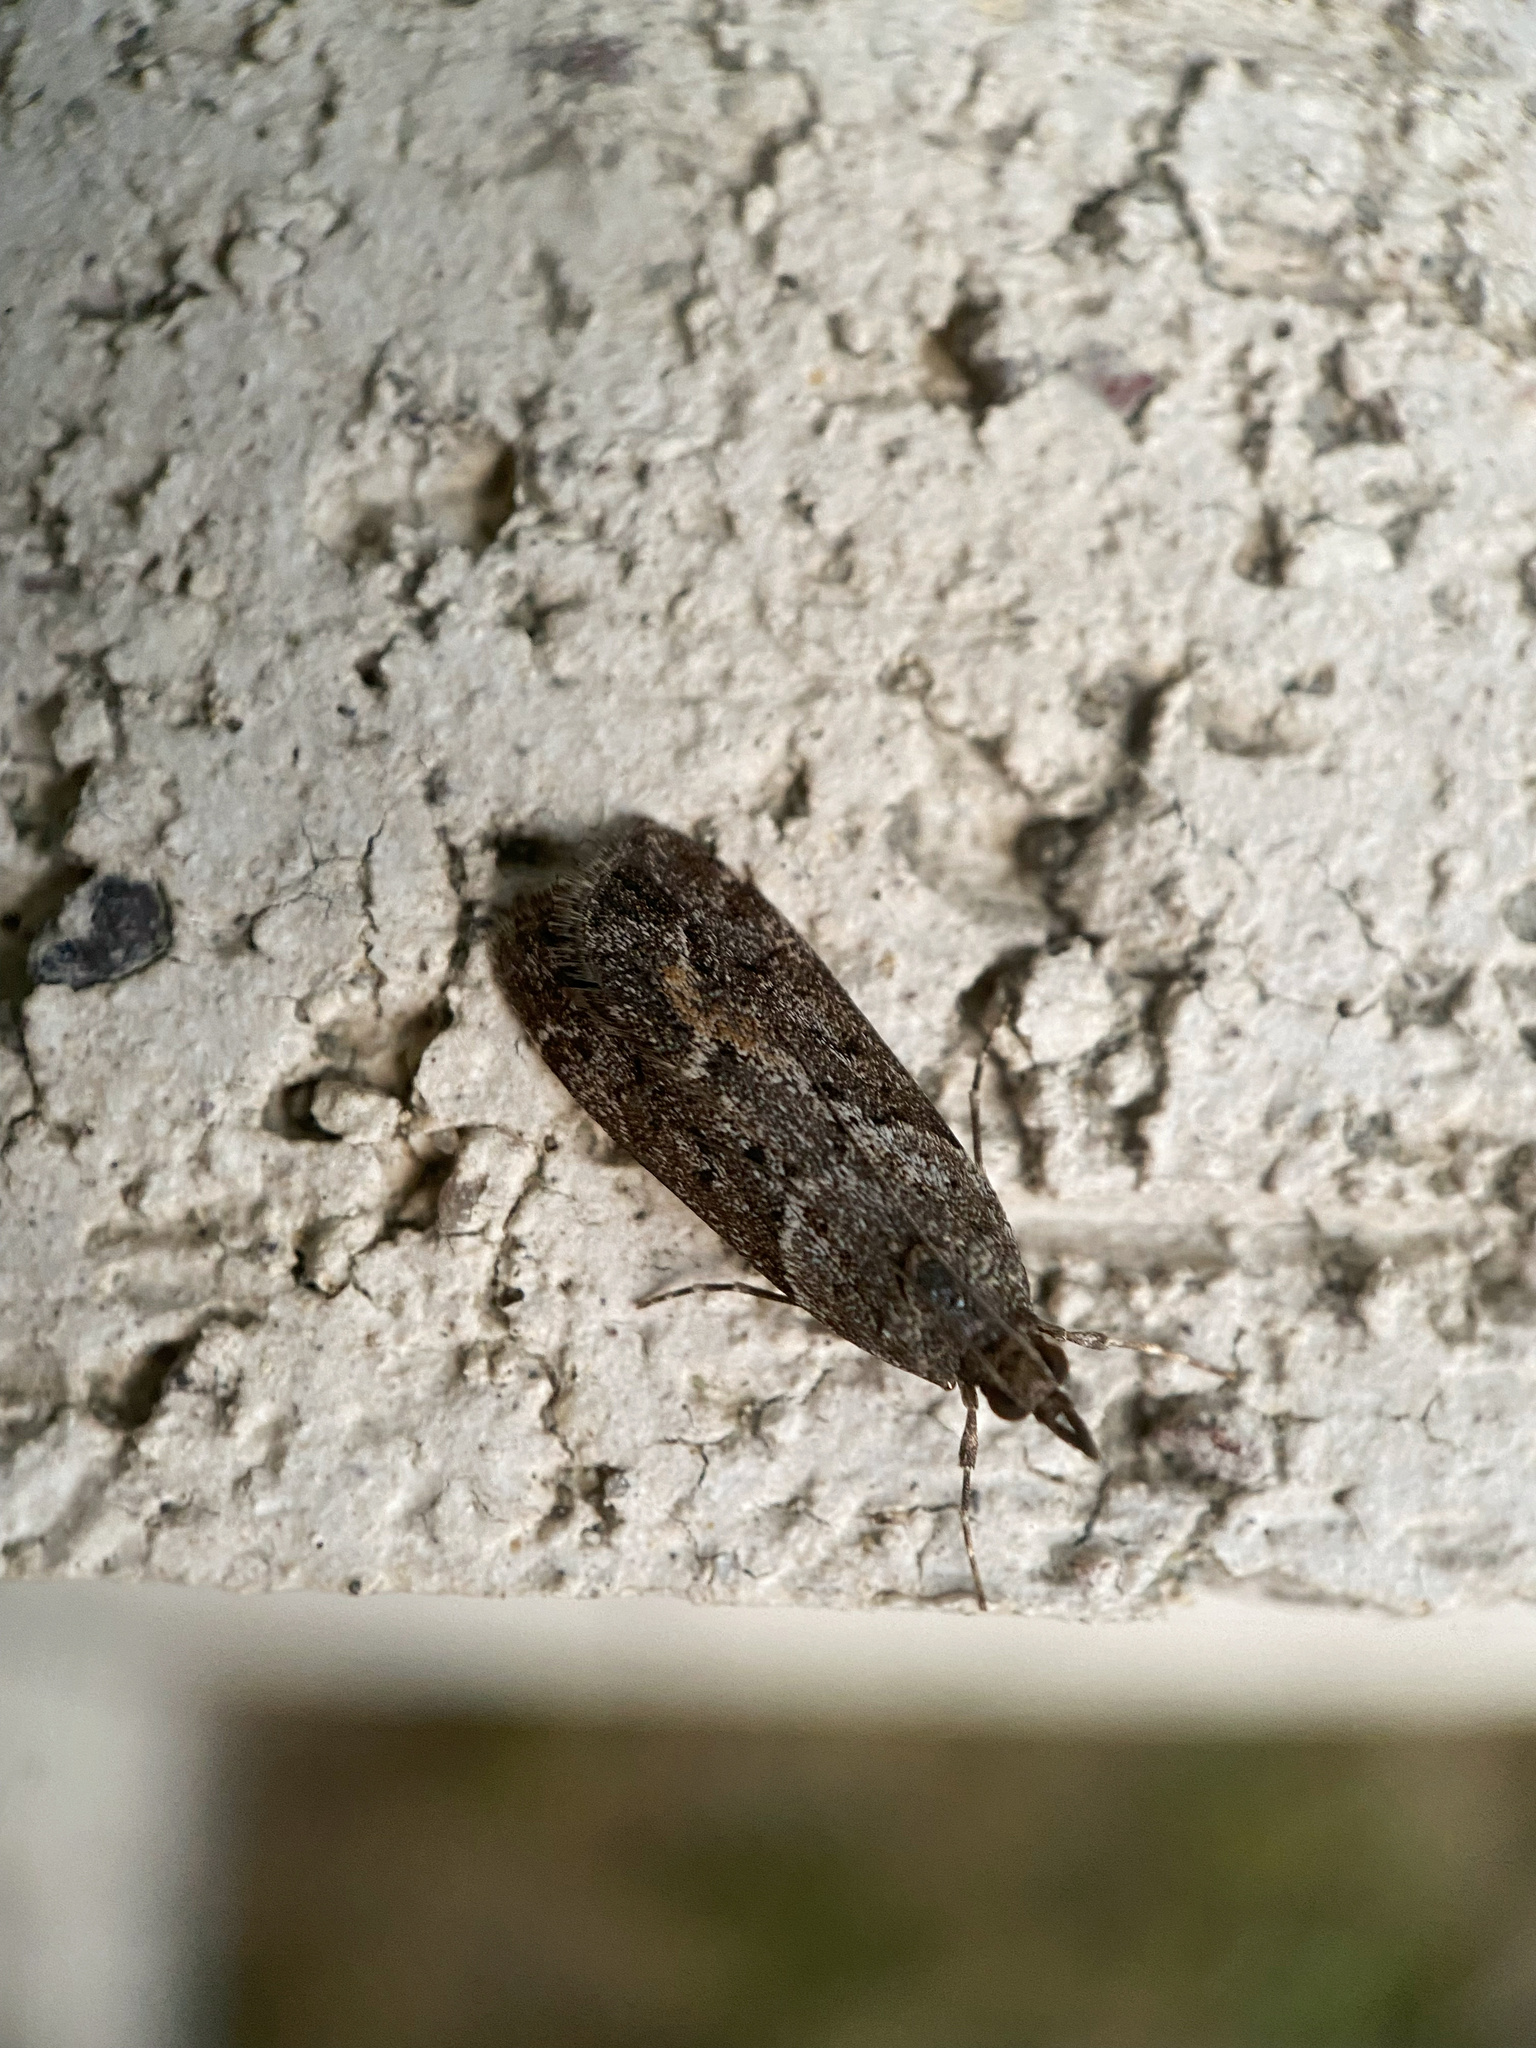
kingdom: Animalia
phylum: Arthropoda
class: Insecta
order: Lepidoptera
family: Crambidae
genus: Eudonia
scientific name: Eudonia submarginalis
